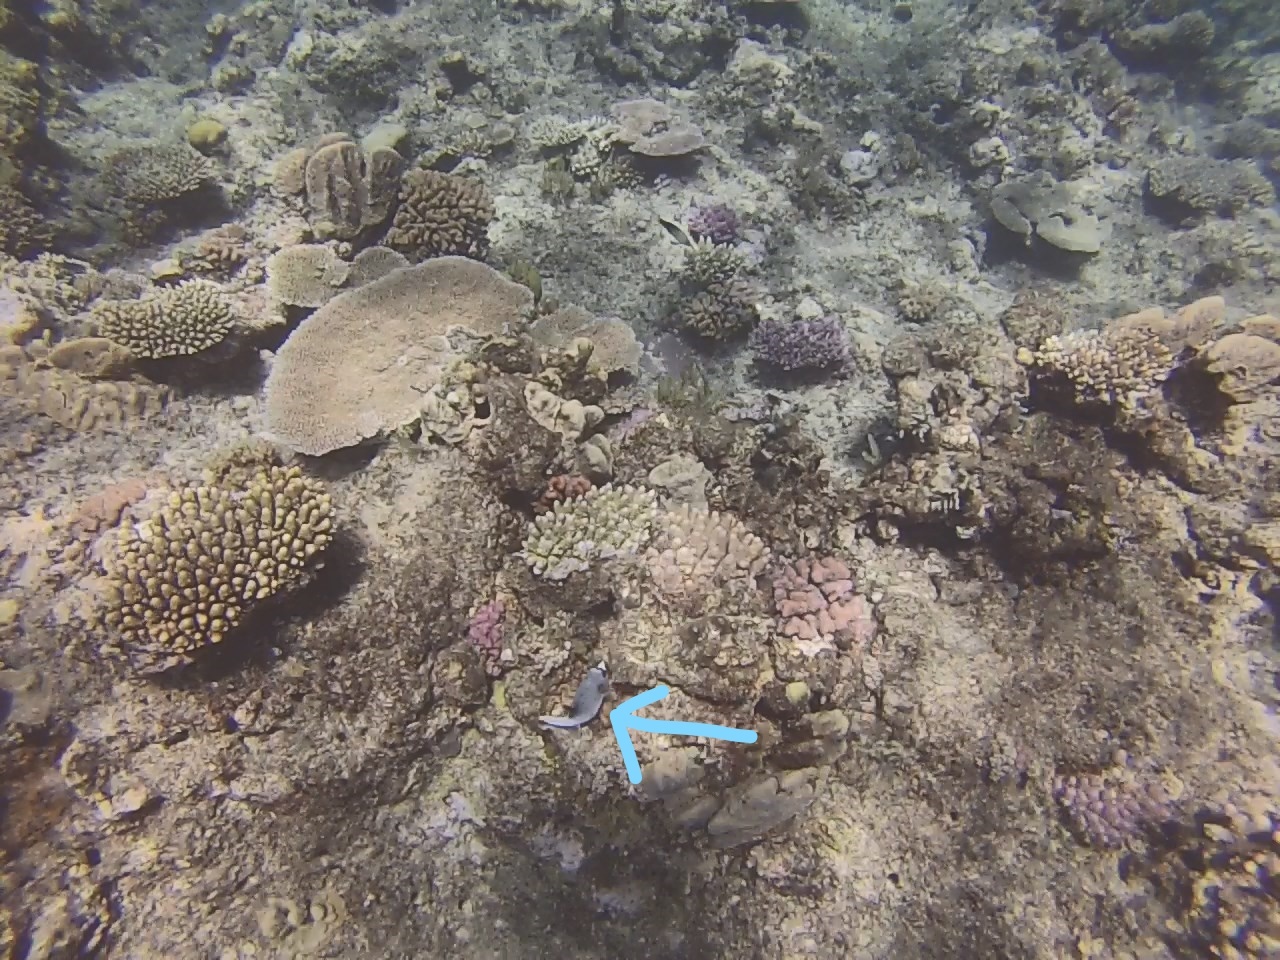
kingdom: Animalia
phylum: Chordata
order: Tetraodontiformes
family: Tetraodontidae
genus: Arothron
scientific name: Arothron nigropunctatus
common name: Black spotted blow fish
